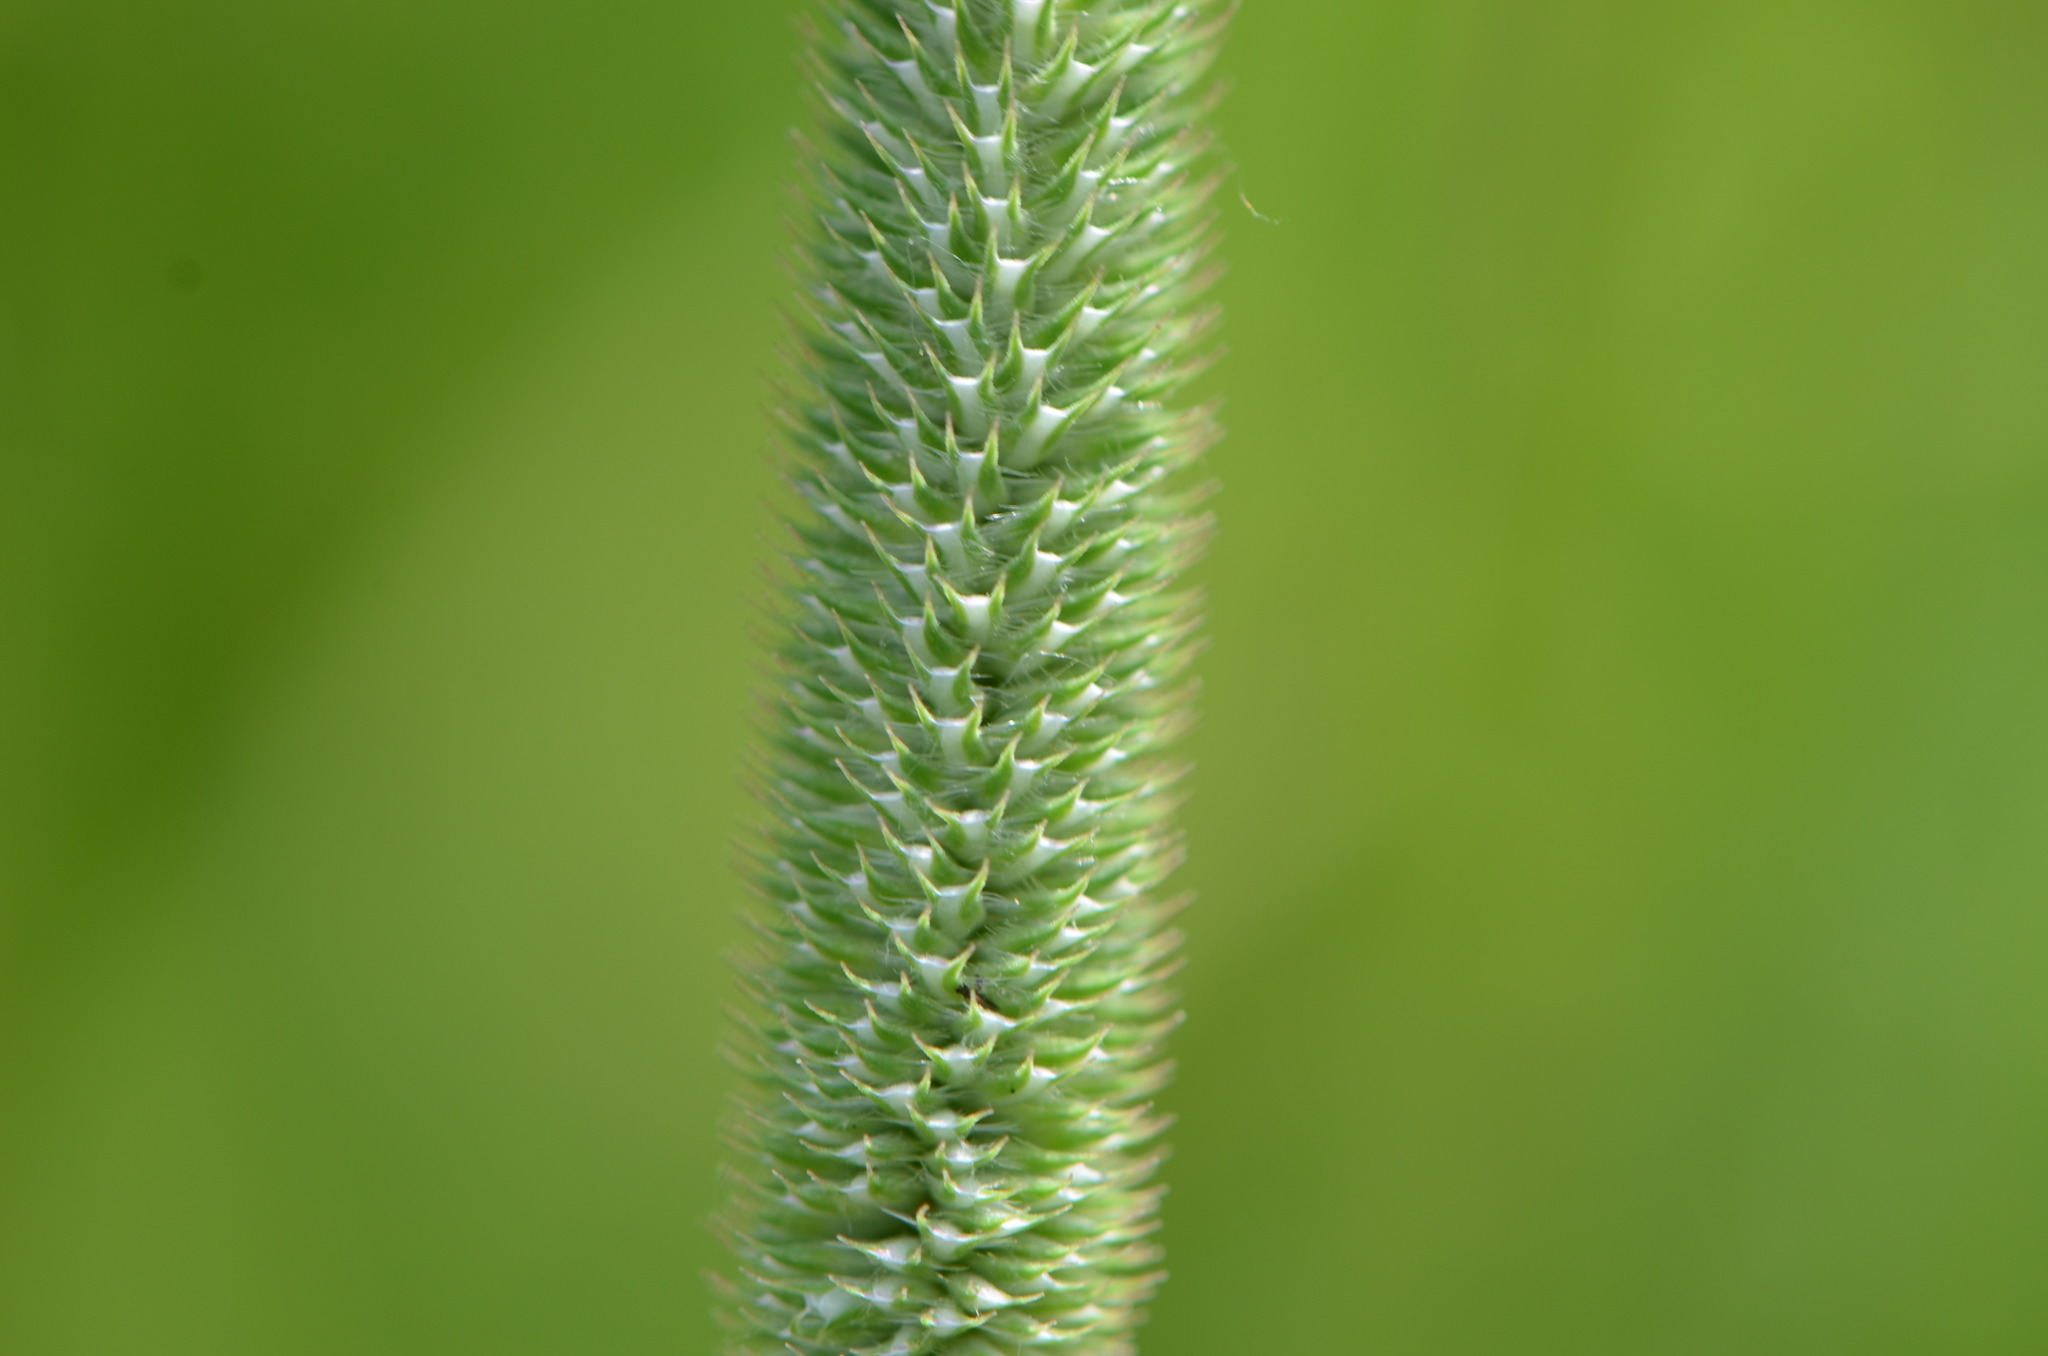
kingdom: Plantae
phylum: Tracheophyta
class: Liliopsida
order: Poales
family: Poaceae
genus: Phleum
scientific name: Phleum pratense
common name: Timothy grass
